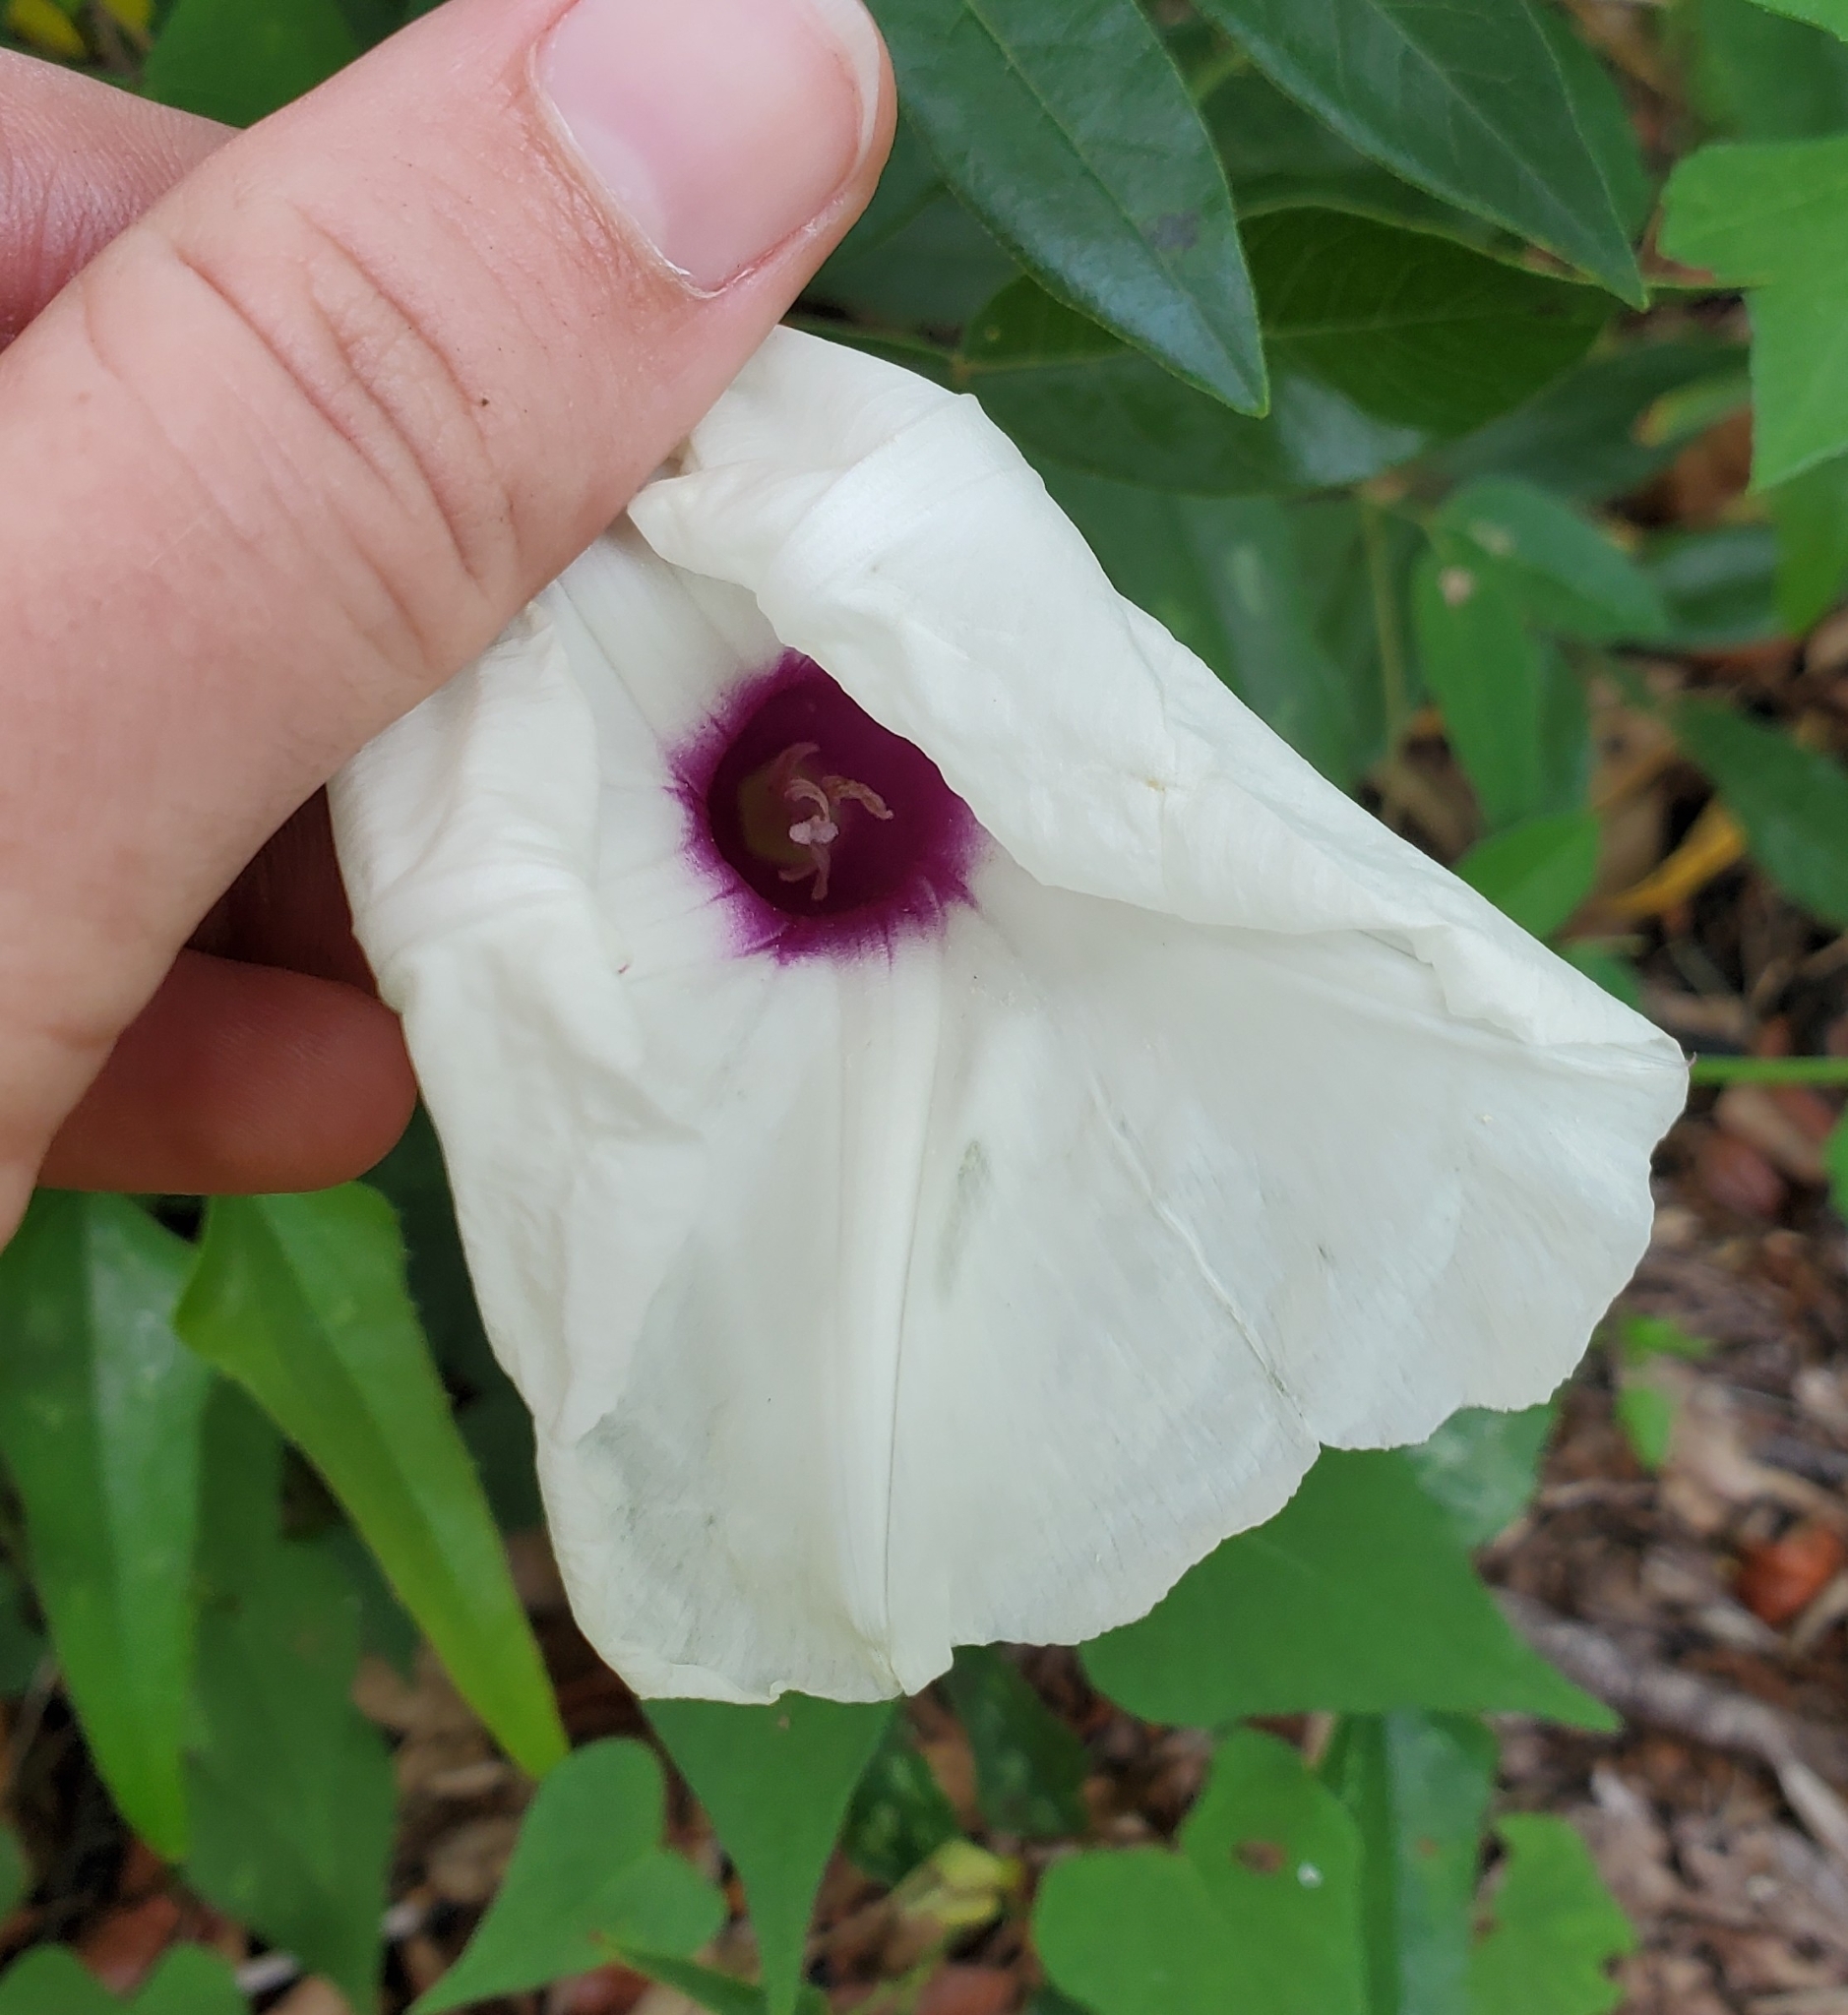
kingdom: Plantae
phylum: Tracheophyta
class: Magnoliopsida
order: Solanales
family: Convolvulaceae
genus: Ipomoea
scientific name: Ipomoea pandurata
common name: Man-of-the-earth
